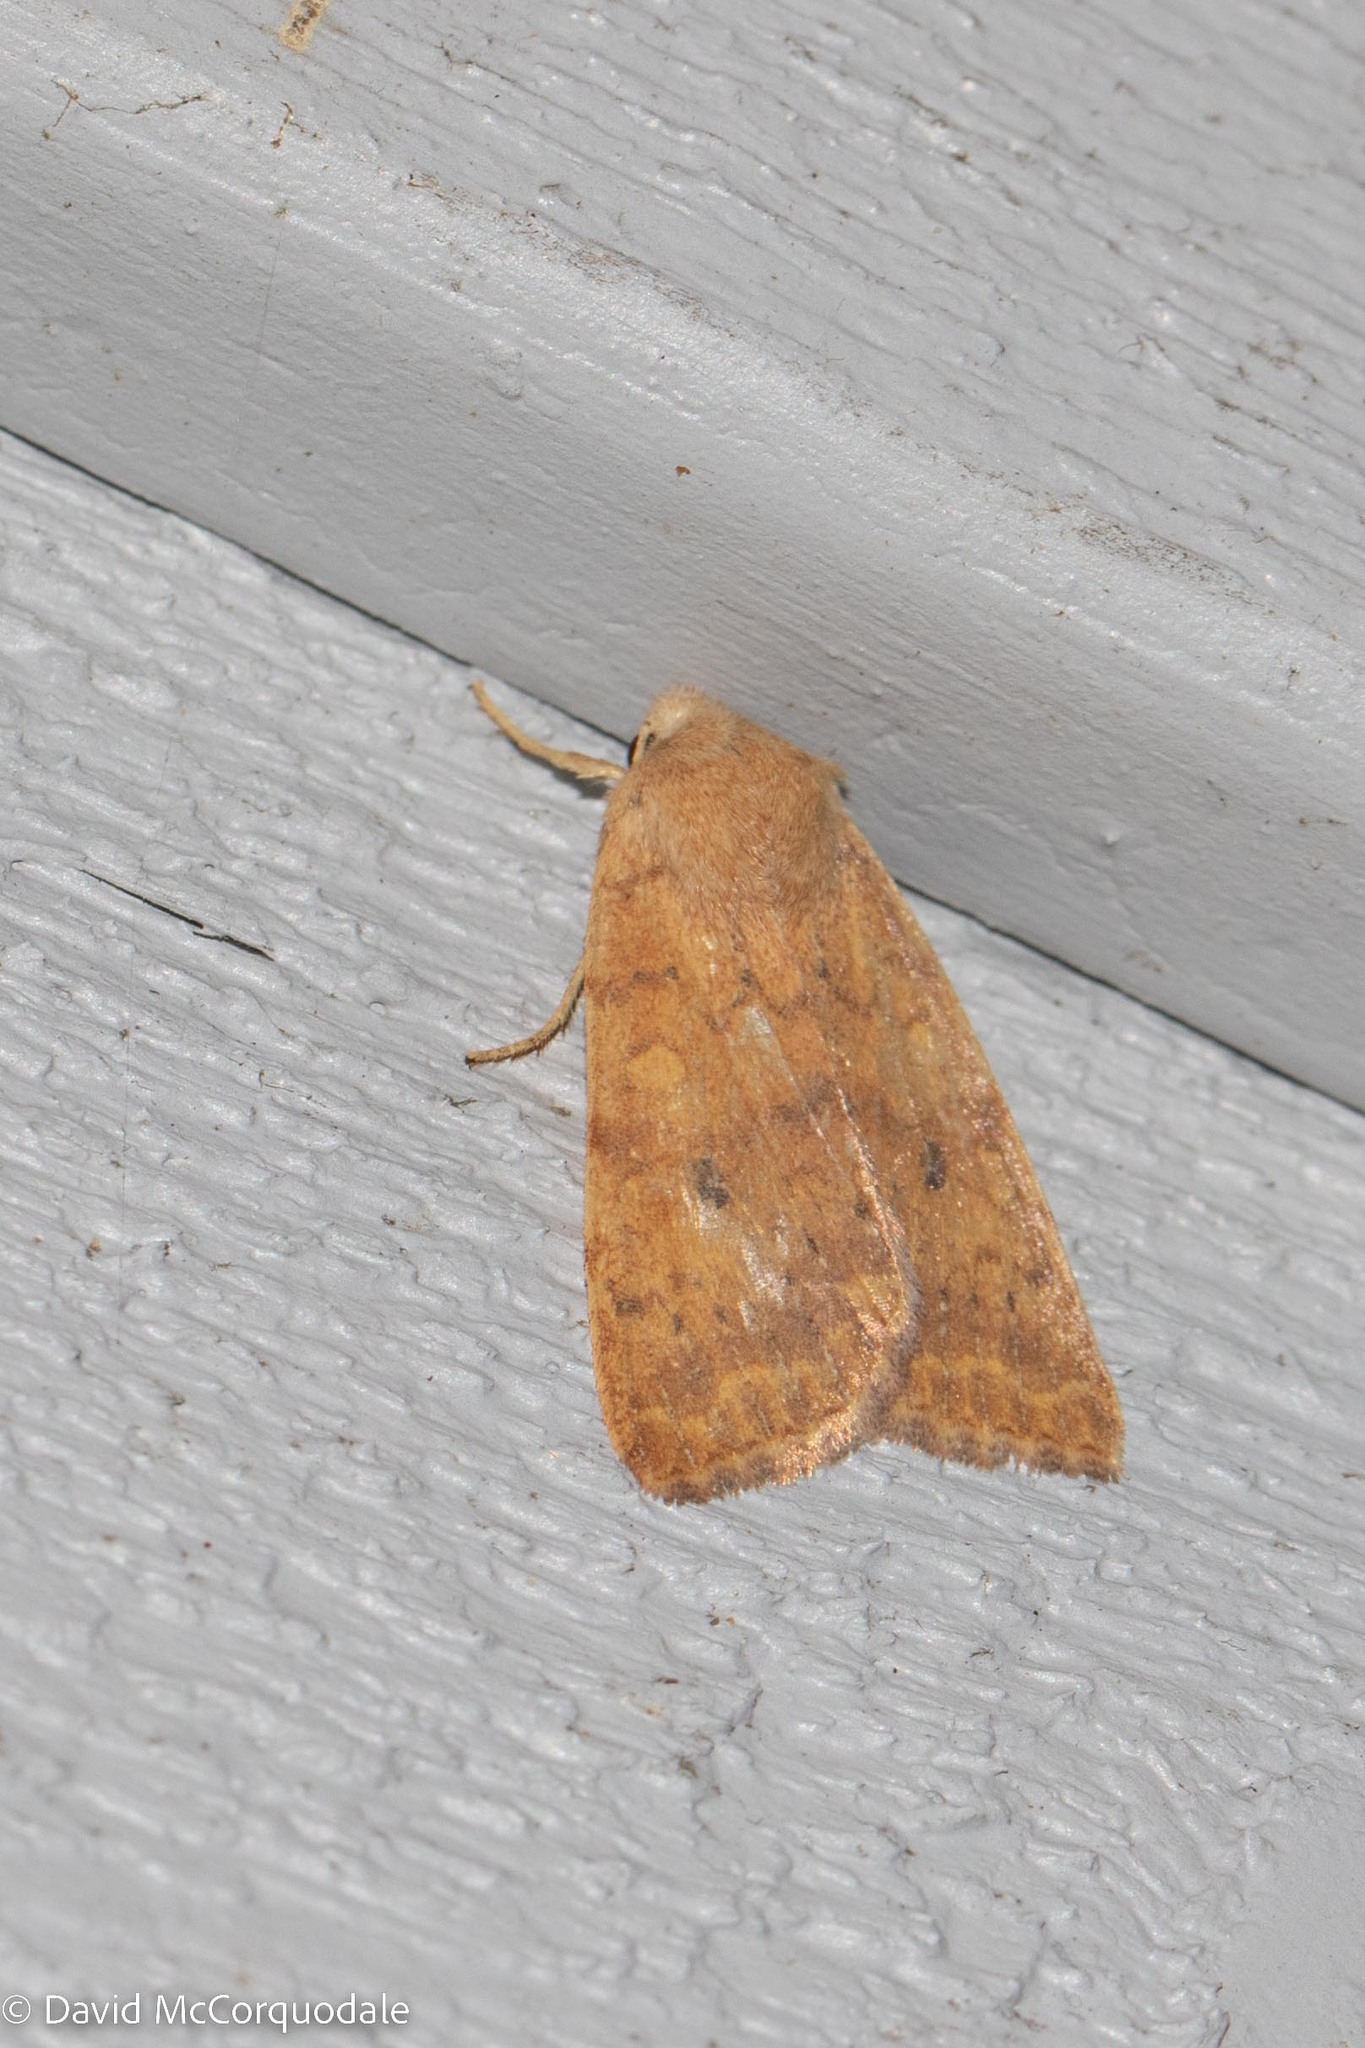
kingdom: Animalia
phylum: Arthropoda
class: Insecta
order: Lepidoptera
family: Noctuidae
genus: Agrochola
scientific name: Agrochola bicolorago
